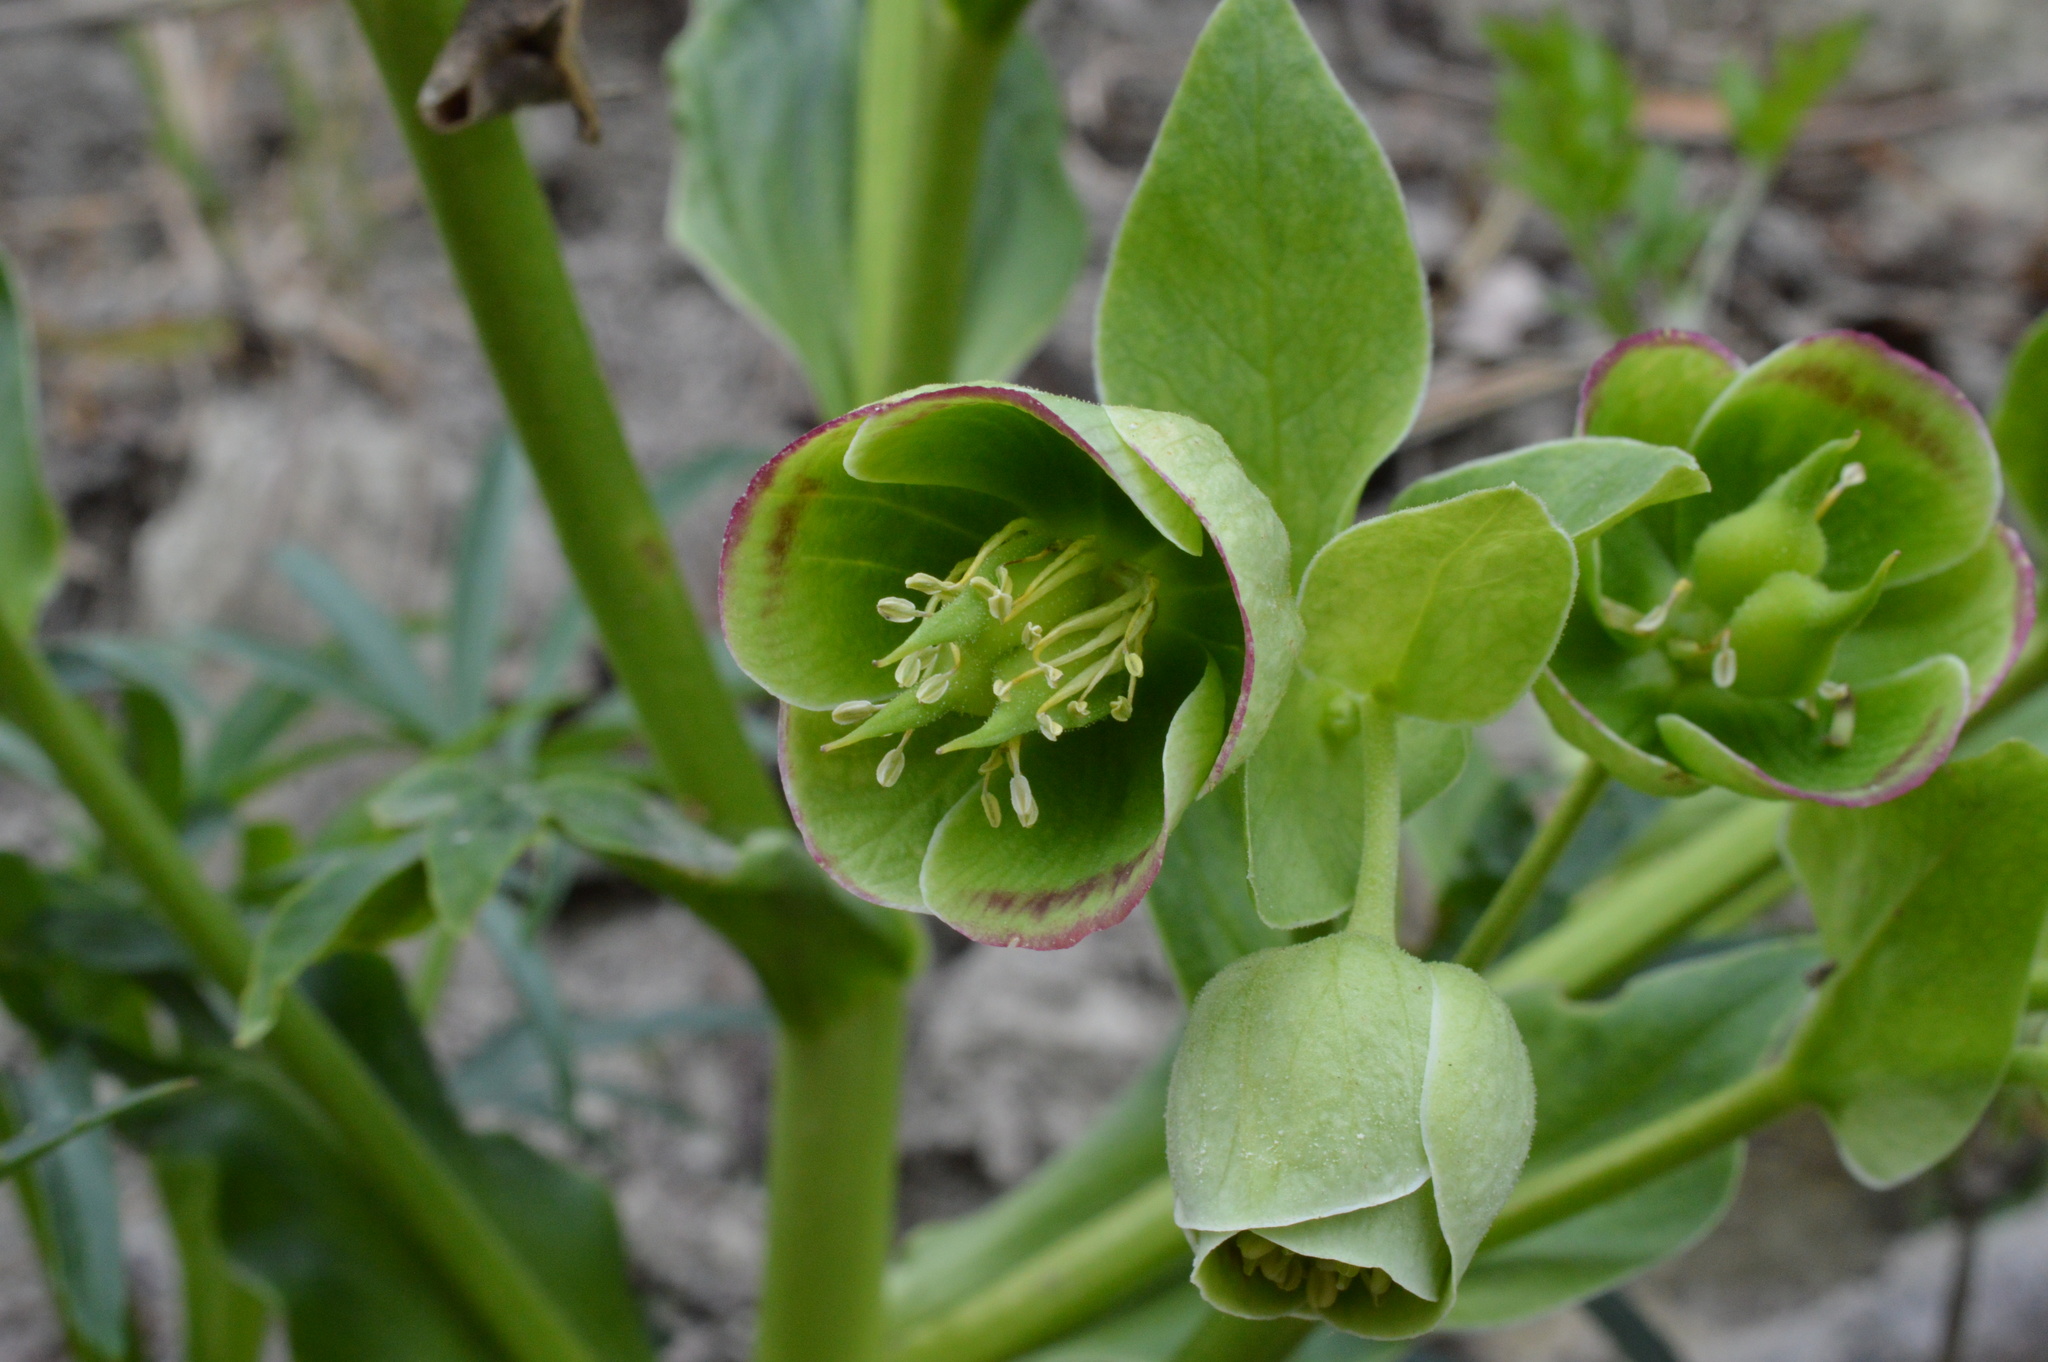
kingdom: Plantae
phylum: Tracheophyta
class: Magnoliopsida
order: Ranunculales
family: Ranunculaceae
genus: Helleborus
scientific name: Helleborus foetidus
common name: Stinking hellebore
